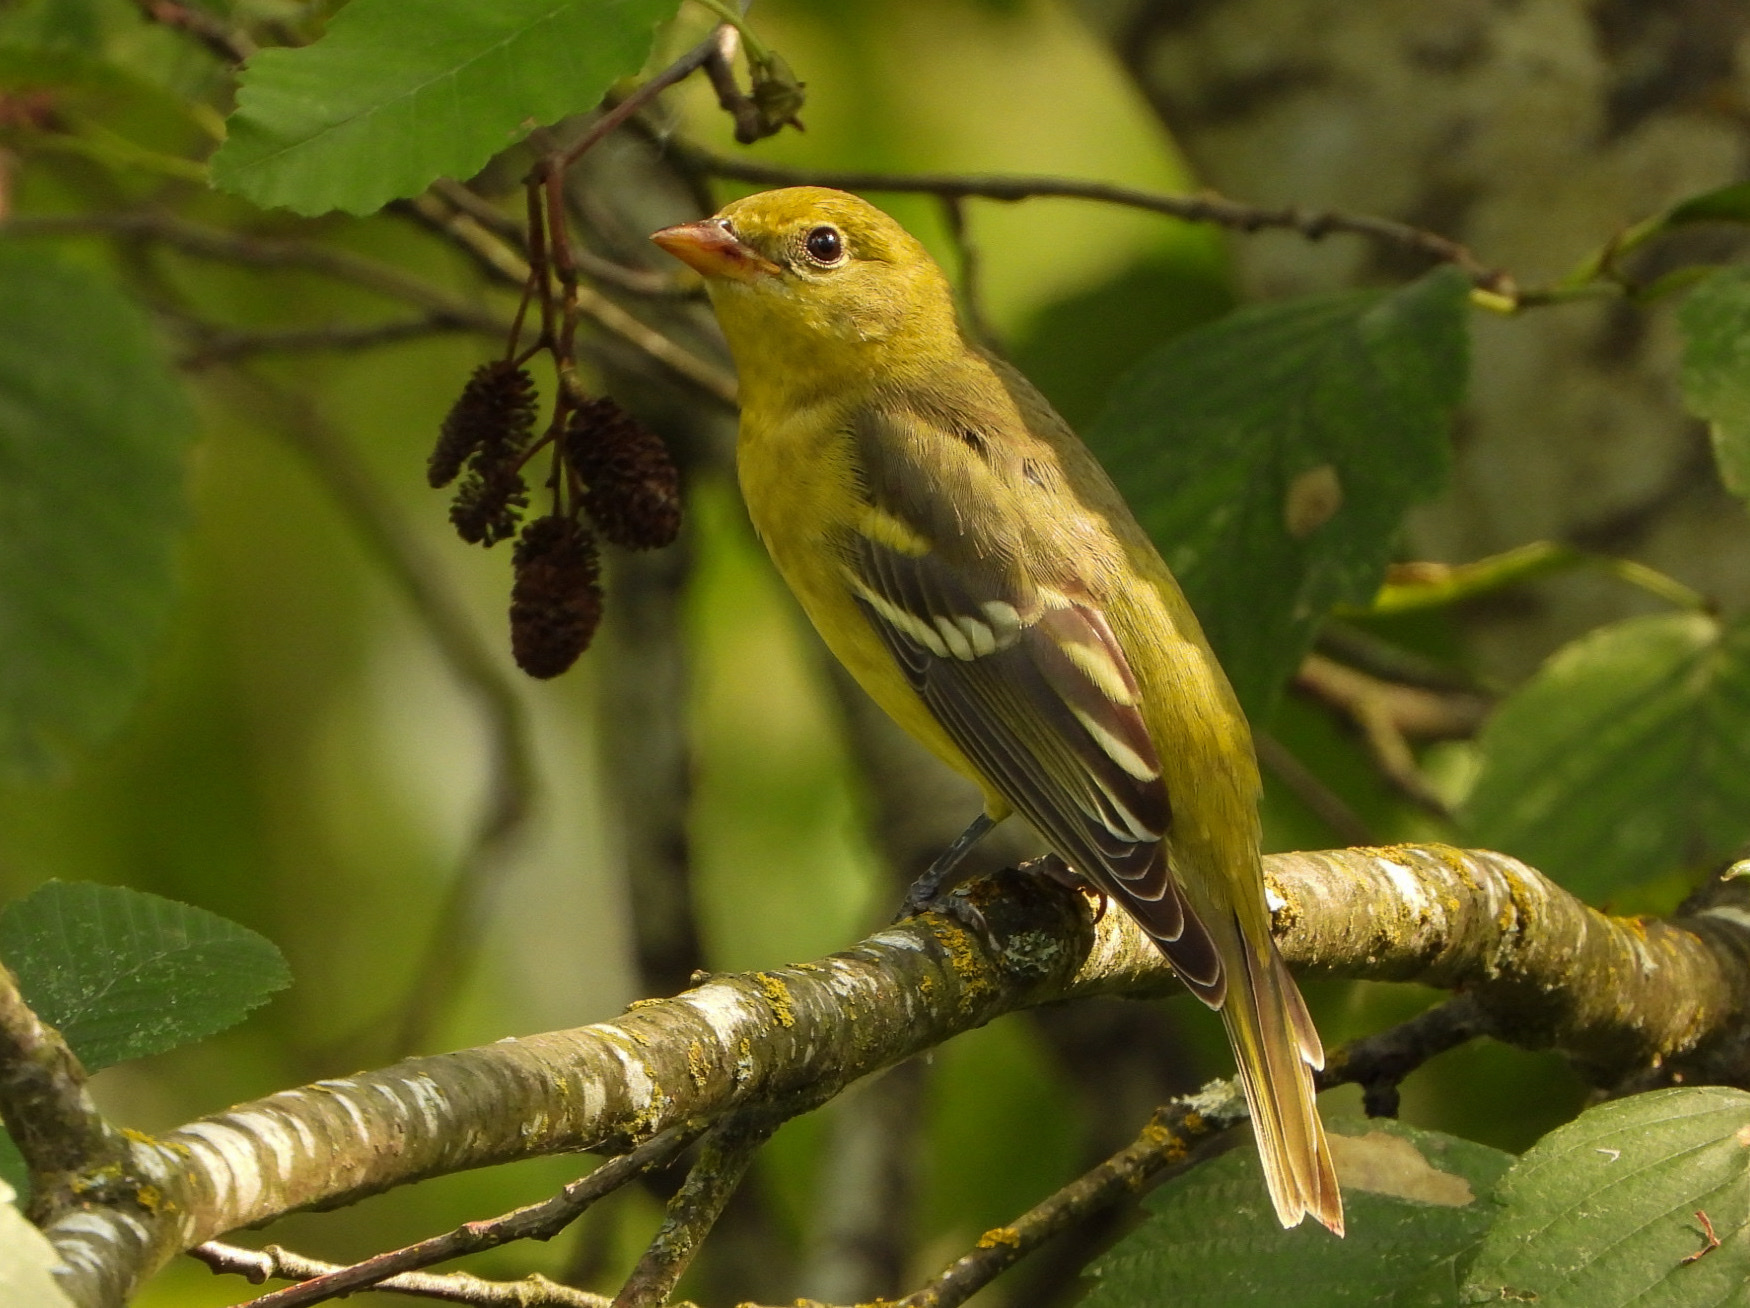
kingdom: Animalia
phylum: Chordata
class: Aves
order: Passeriformes
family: Cardinalidae
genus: Piranga
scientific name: Piranga ludoviciana
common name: Western tanager
